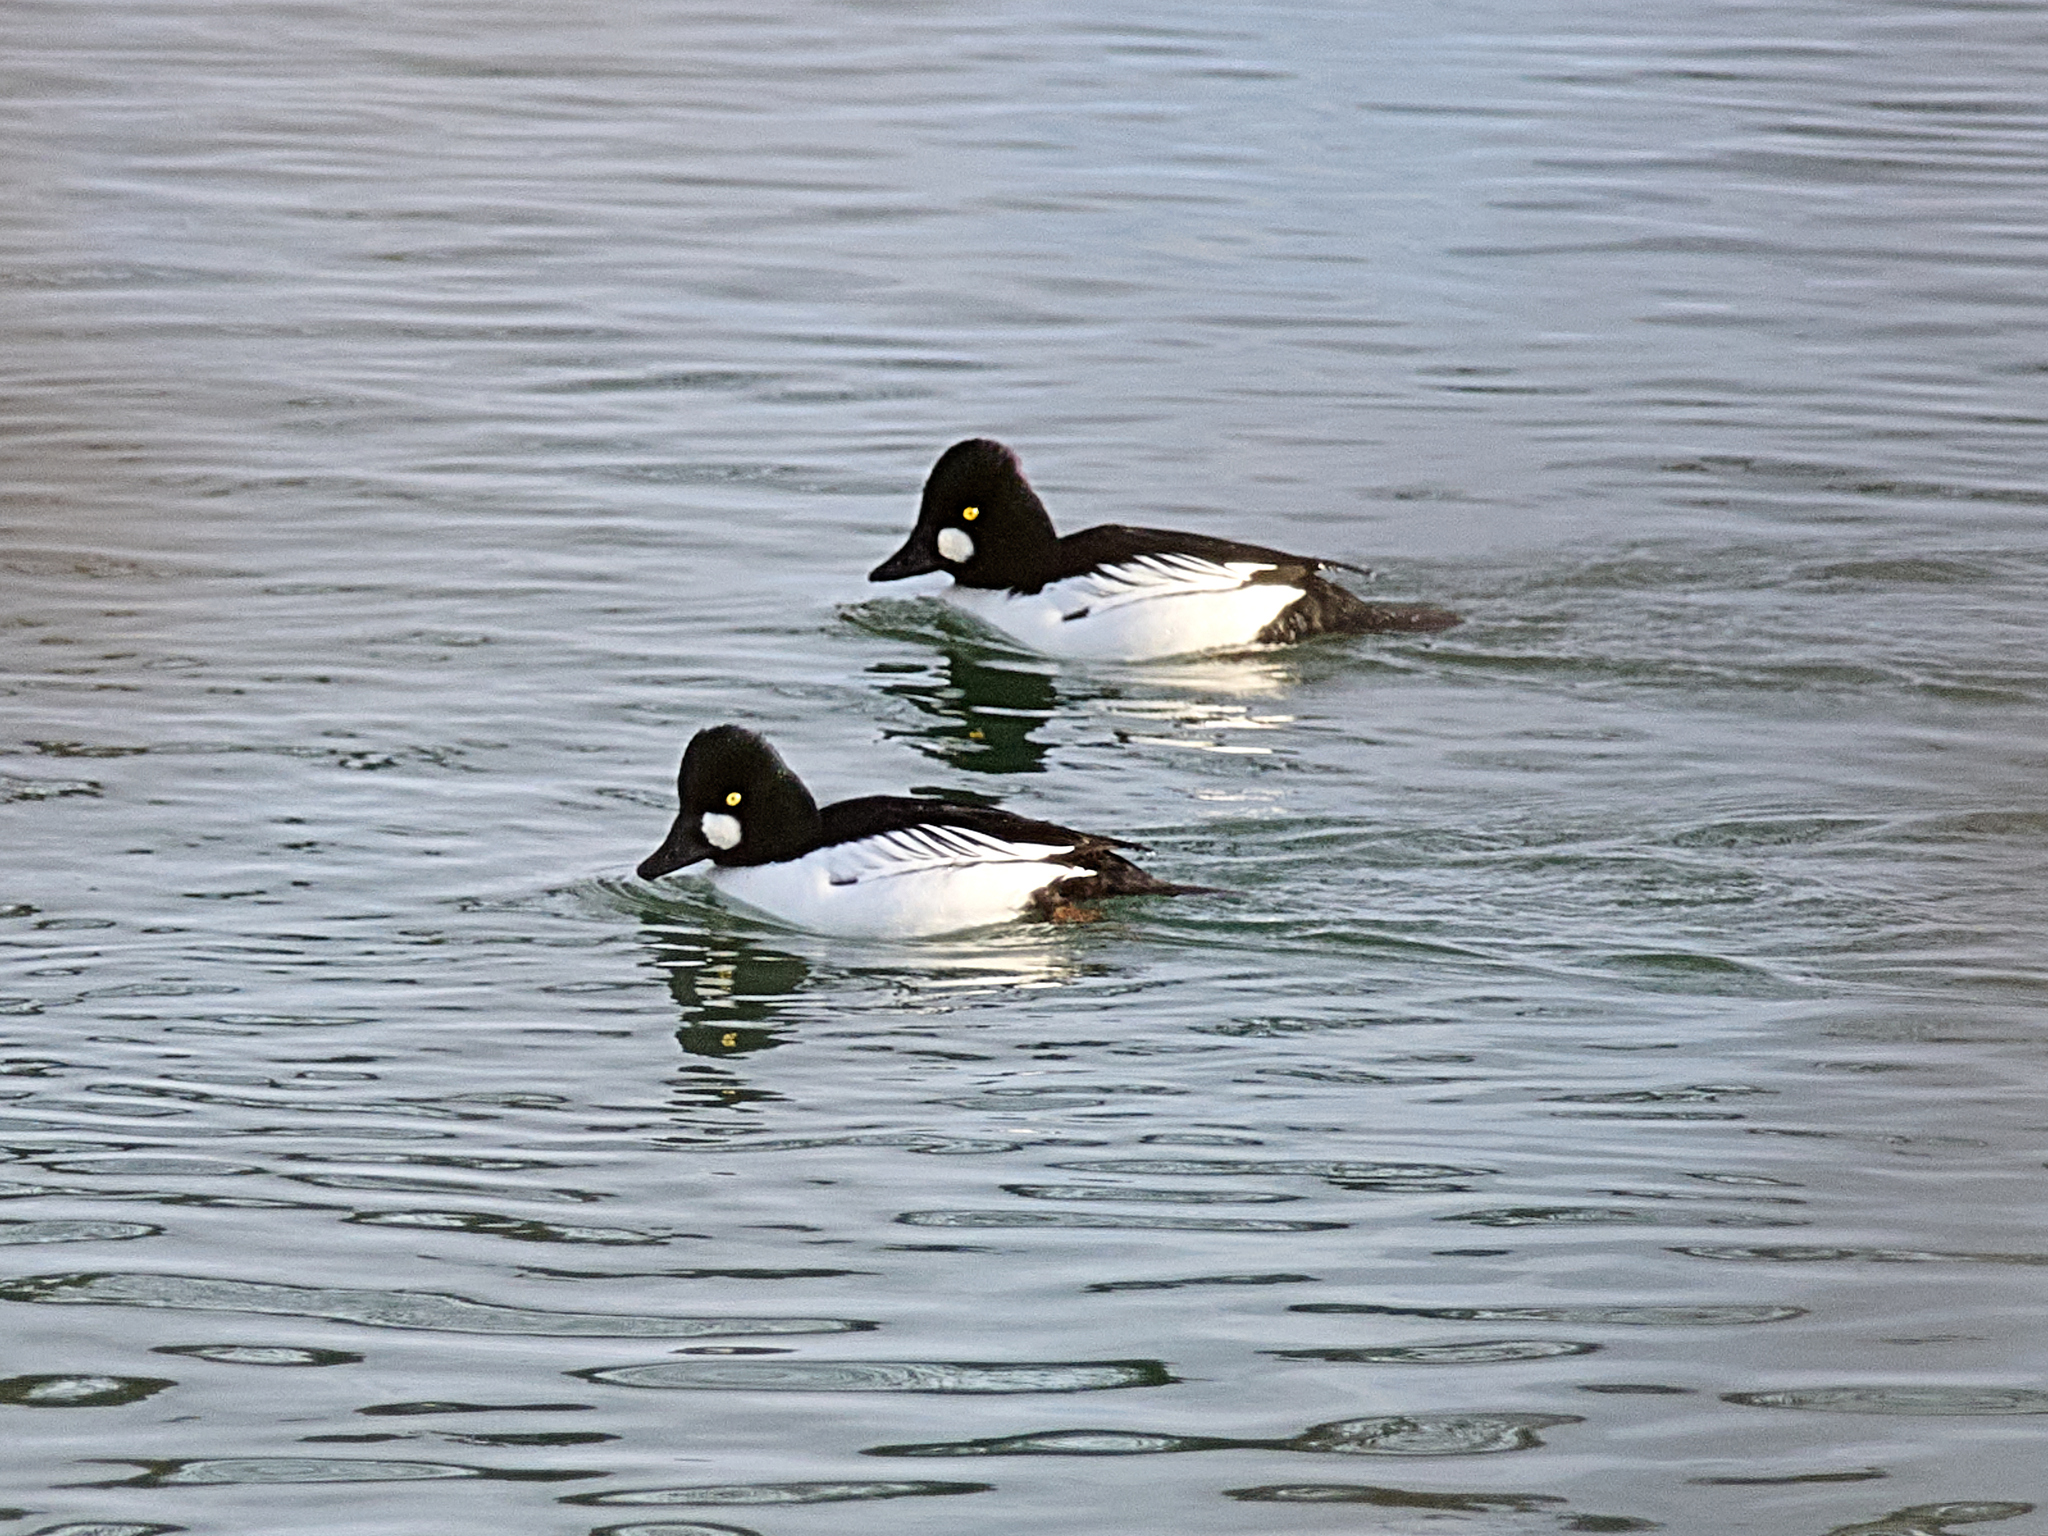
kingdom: Animalia
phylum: Chordata
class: Aves
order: Anseriformes
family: Anatidae
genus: Bucephala
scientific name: Bucephala clangula
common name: Common goldeneye
